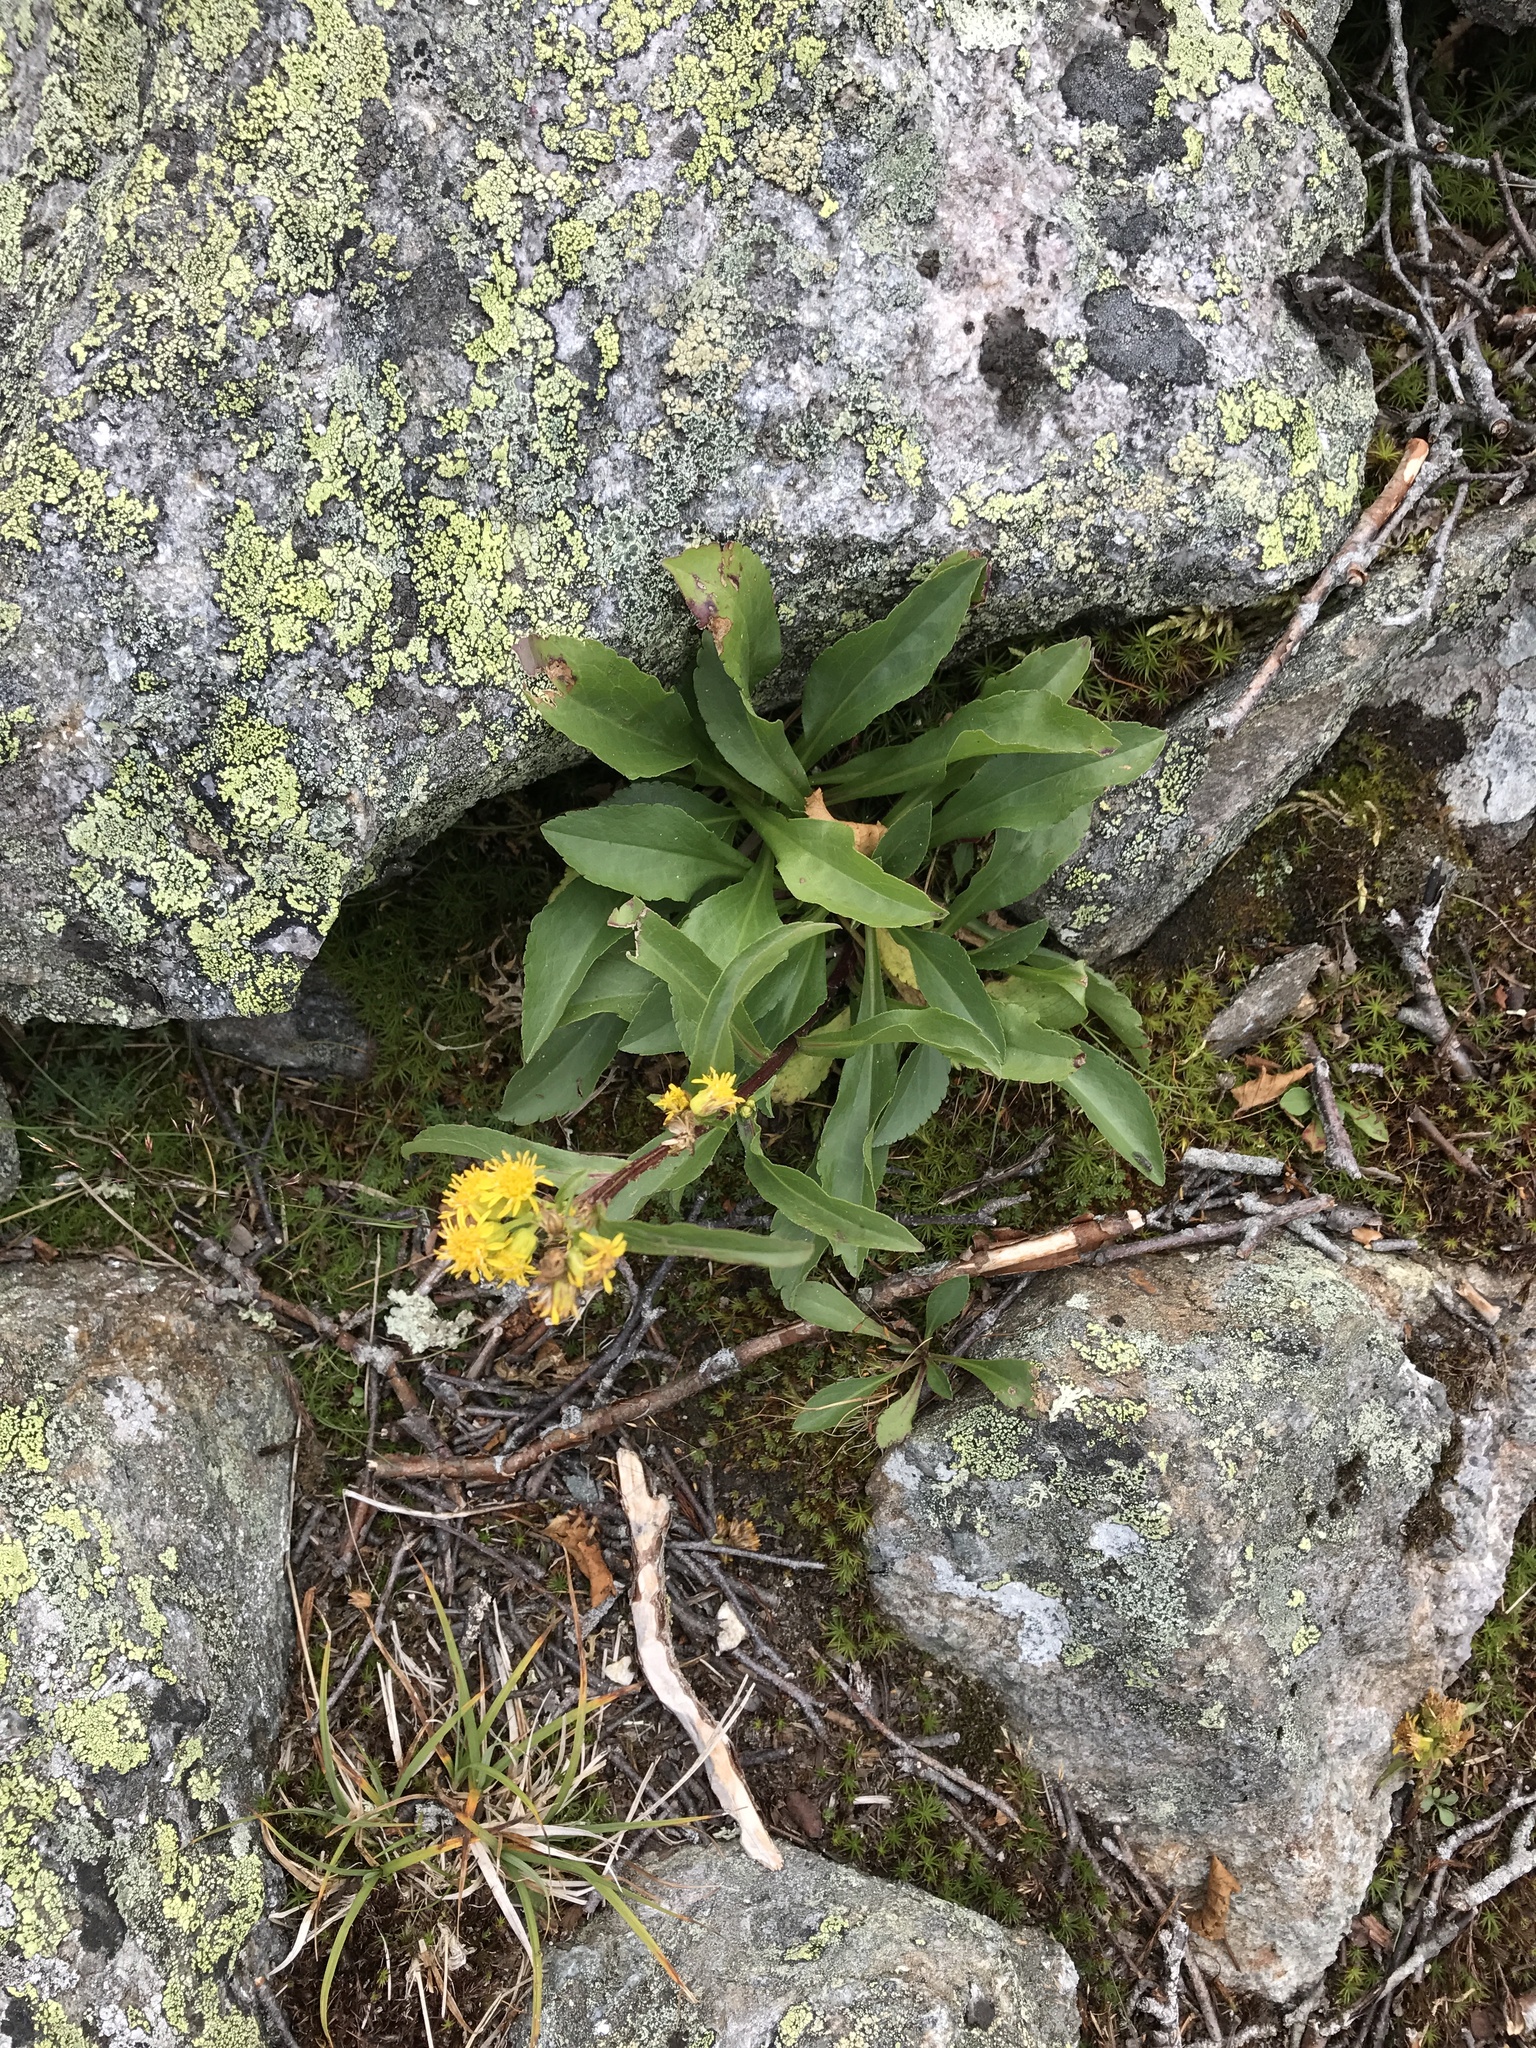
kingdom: Plantae
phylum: Tracheophyta
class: Magnoliopsida
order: Asterales
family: Asteraceae
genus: Solidago
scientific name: Solidago leiocarpa
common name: Cutler's alpine goldenrod
